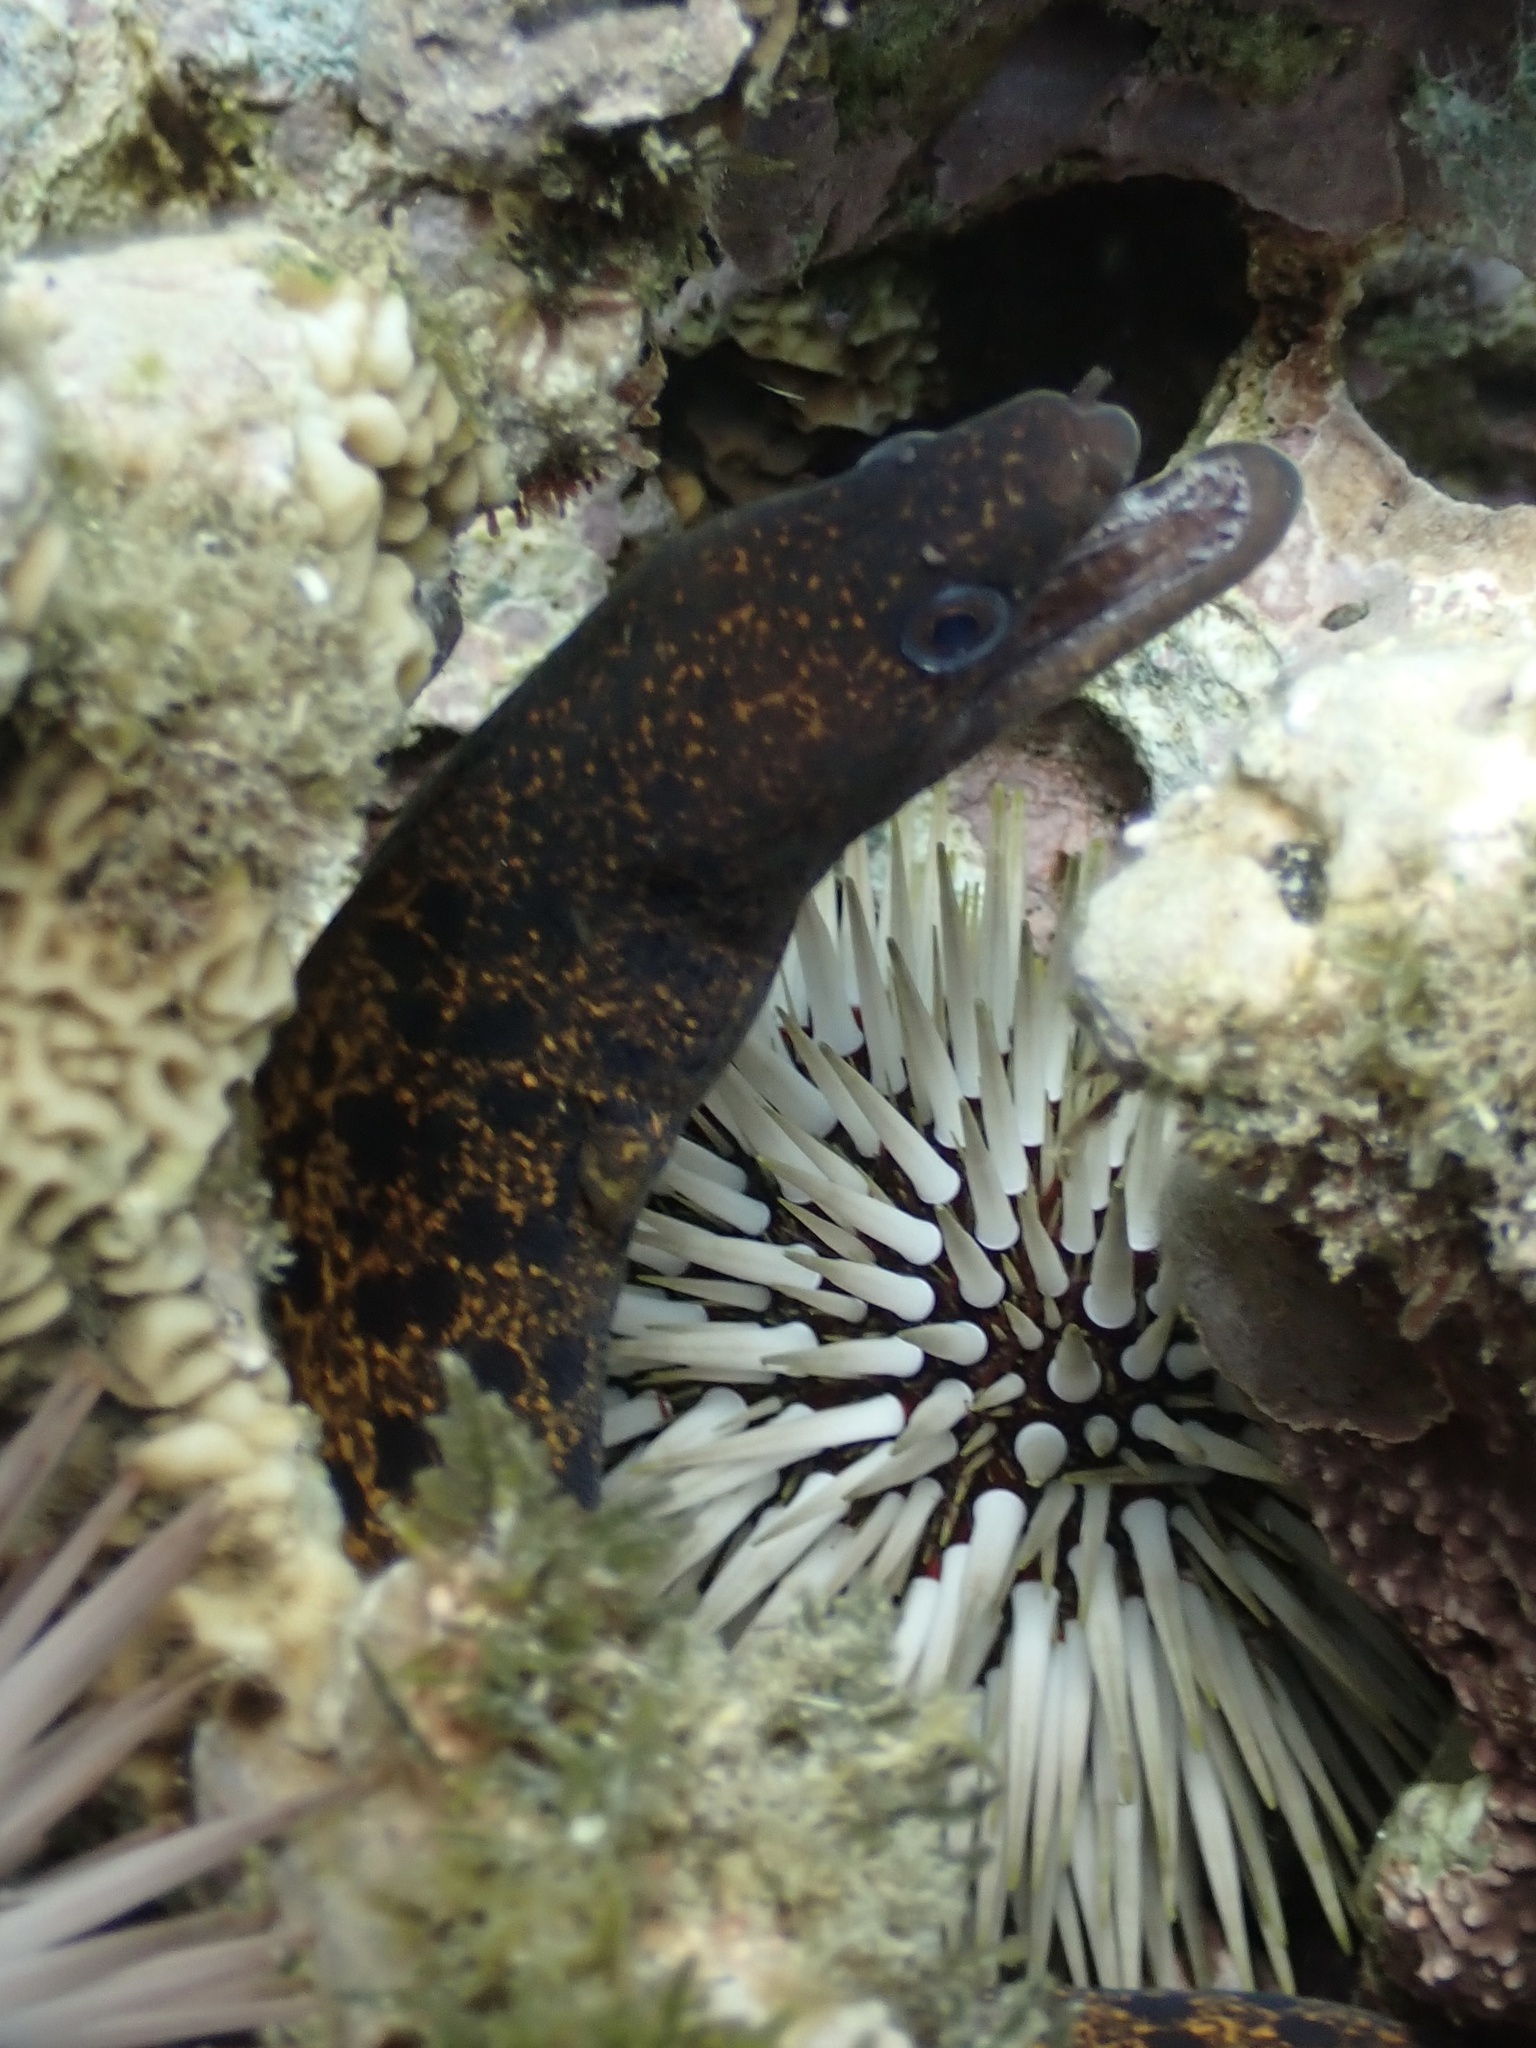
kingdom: Animalia
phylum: Chordata
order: Anguilliformes
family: Muraenidae
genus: Gymnothorax
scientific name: Gymnothorax eurostus
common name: Stout moray
